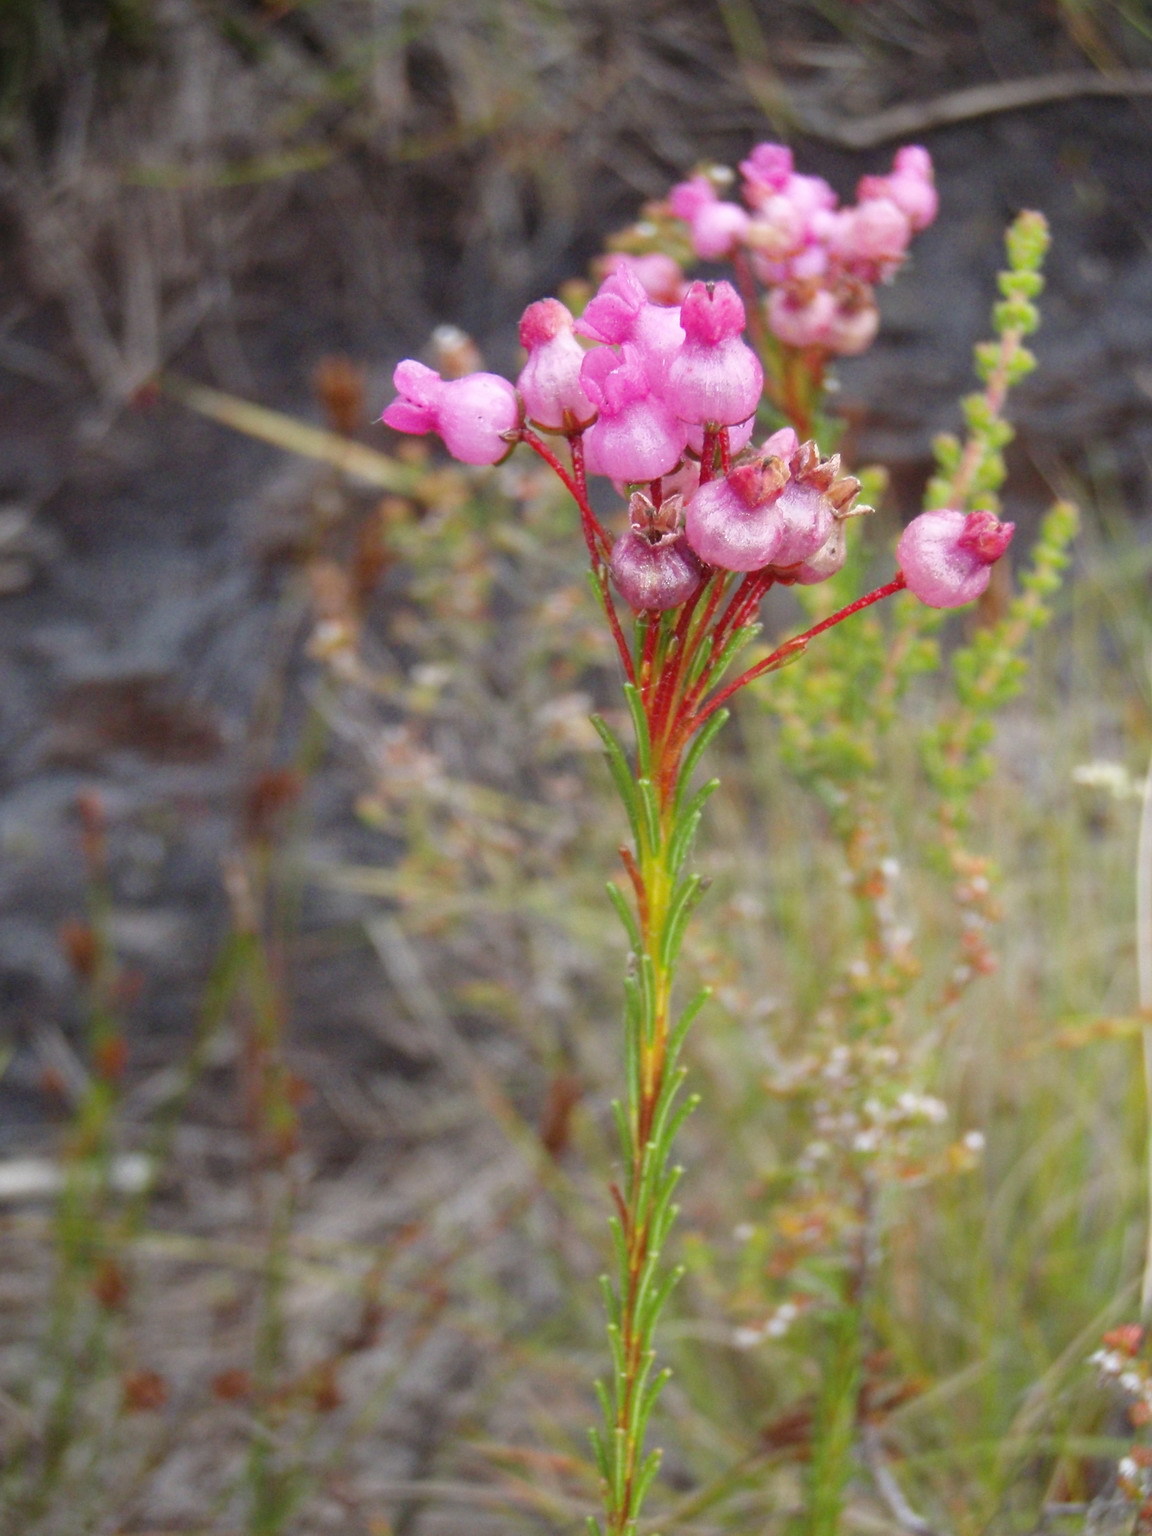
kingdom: Plantae
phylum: Tracheophyta
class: Magnoliopsida
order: Ericales
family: Ericaceae
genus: Erica
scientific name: Erica obliqua
